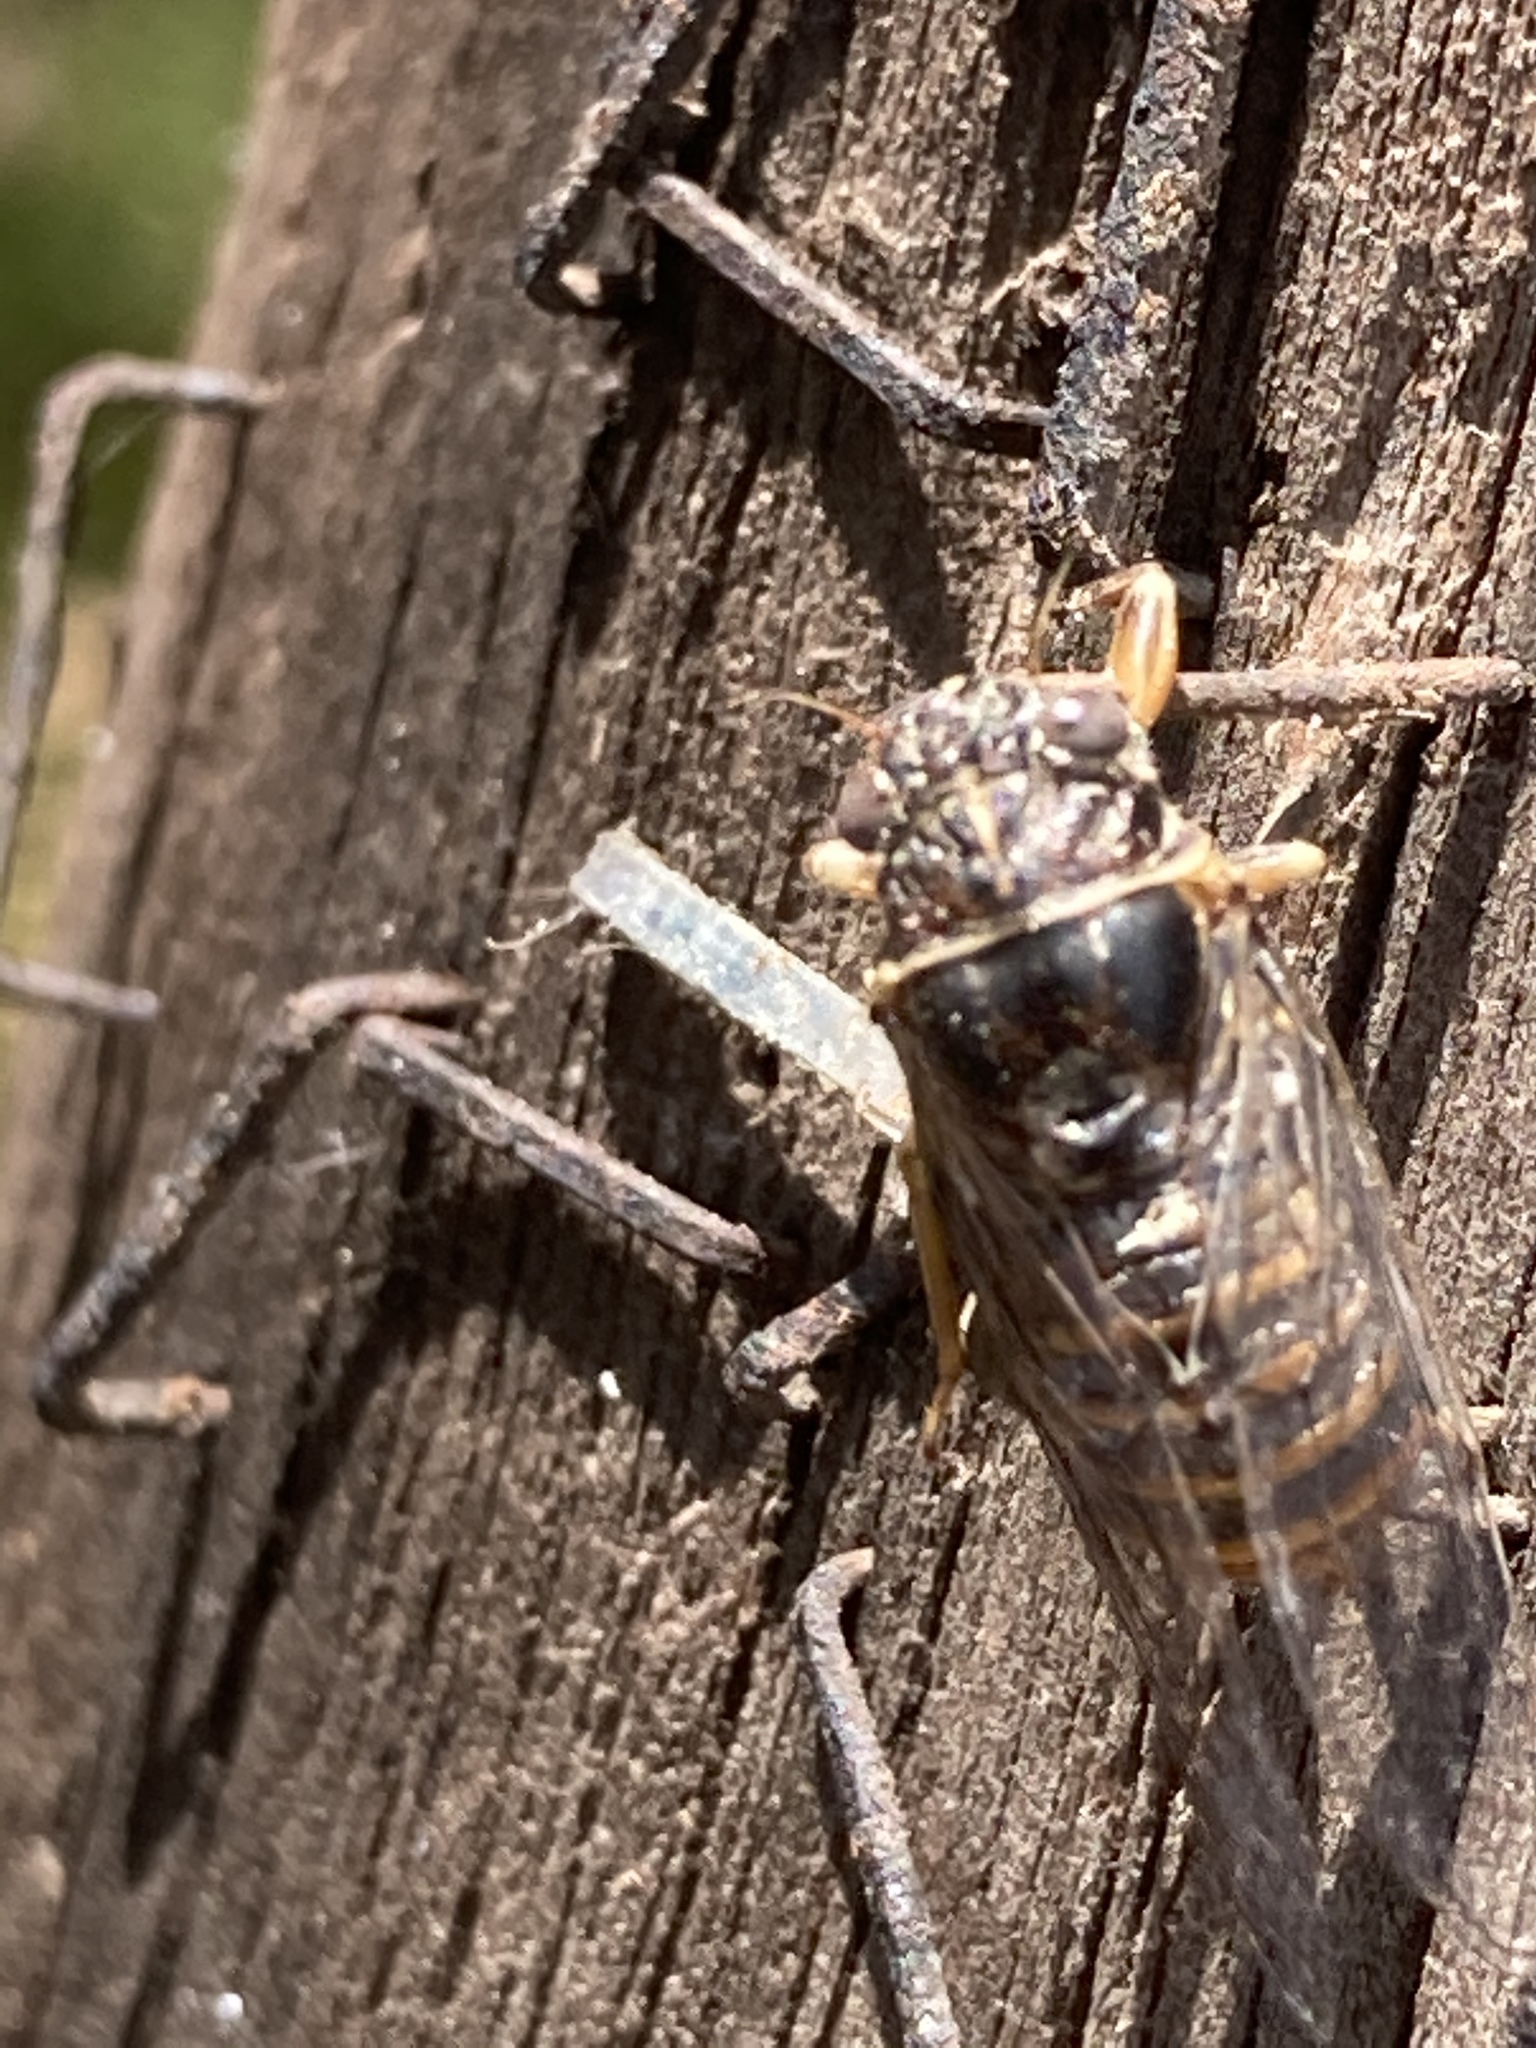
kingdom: Animalia
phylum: Arthropoda
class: Insecta
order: Hemiptera
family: Cicadidae
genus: Pagiphora
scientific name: Pagiphora annulata
